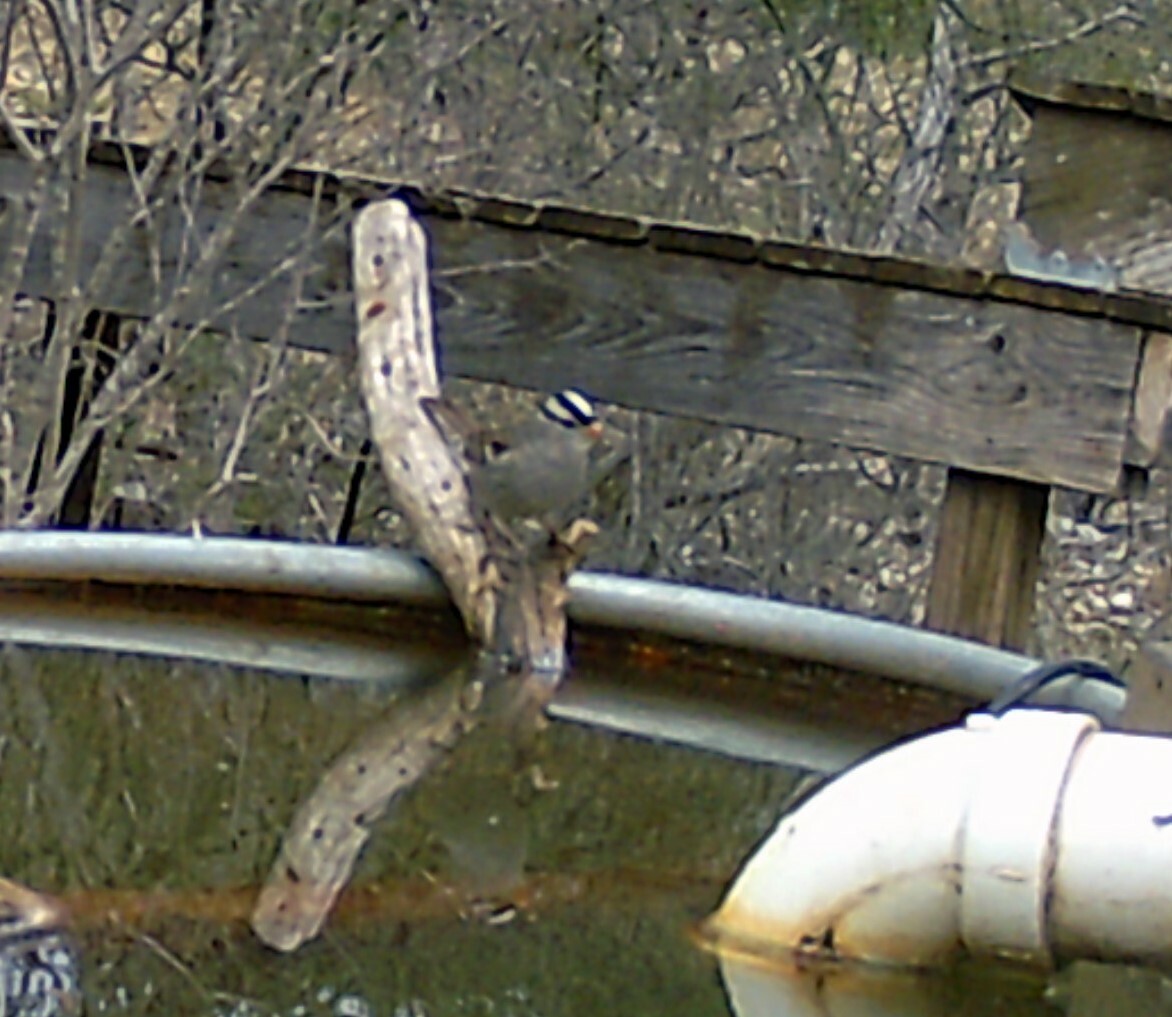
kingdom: Animalia
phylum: Chordata
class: Aves
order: Passeriformes
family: Passerellidae
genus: Zonotrichia
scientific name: Zonotrichia leucophrys
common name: White-crowned sparrow
